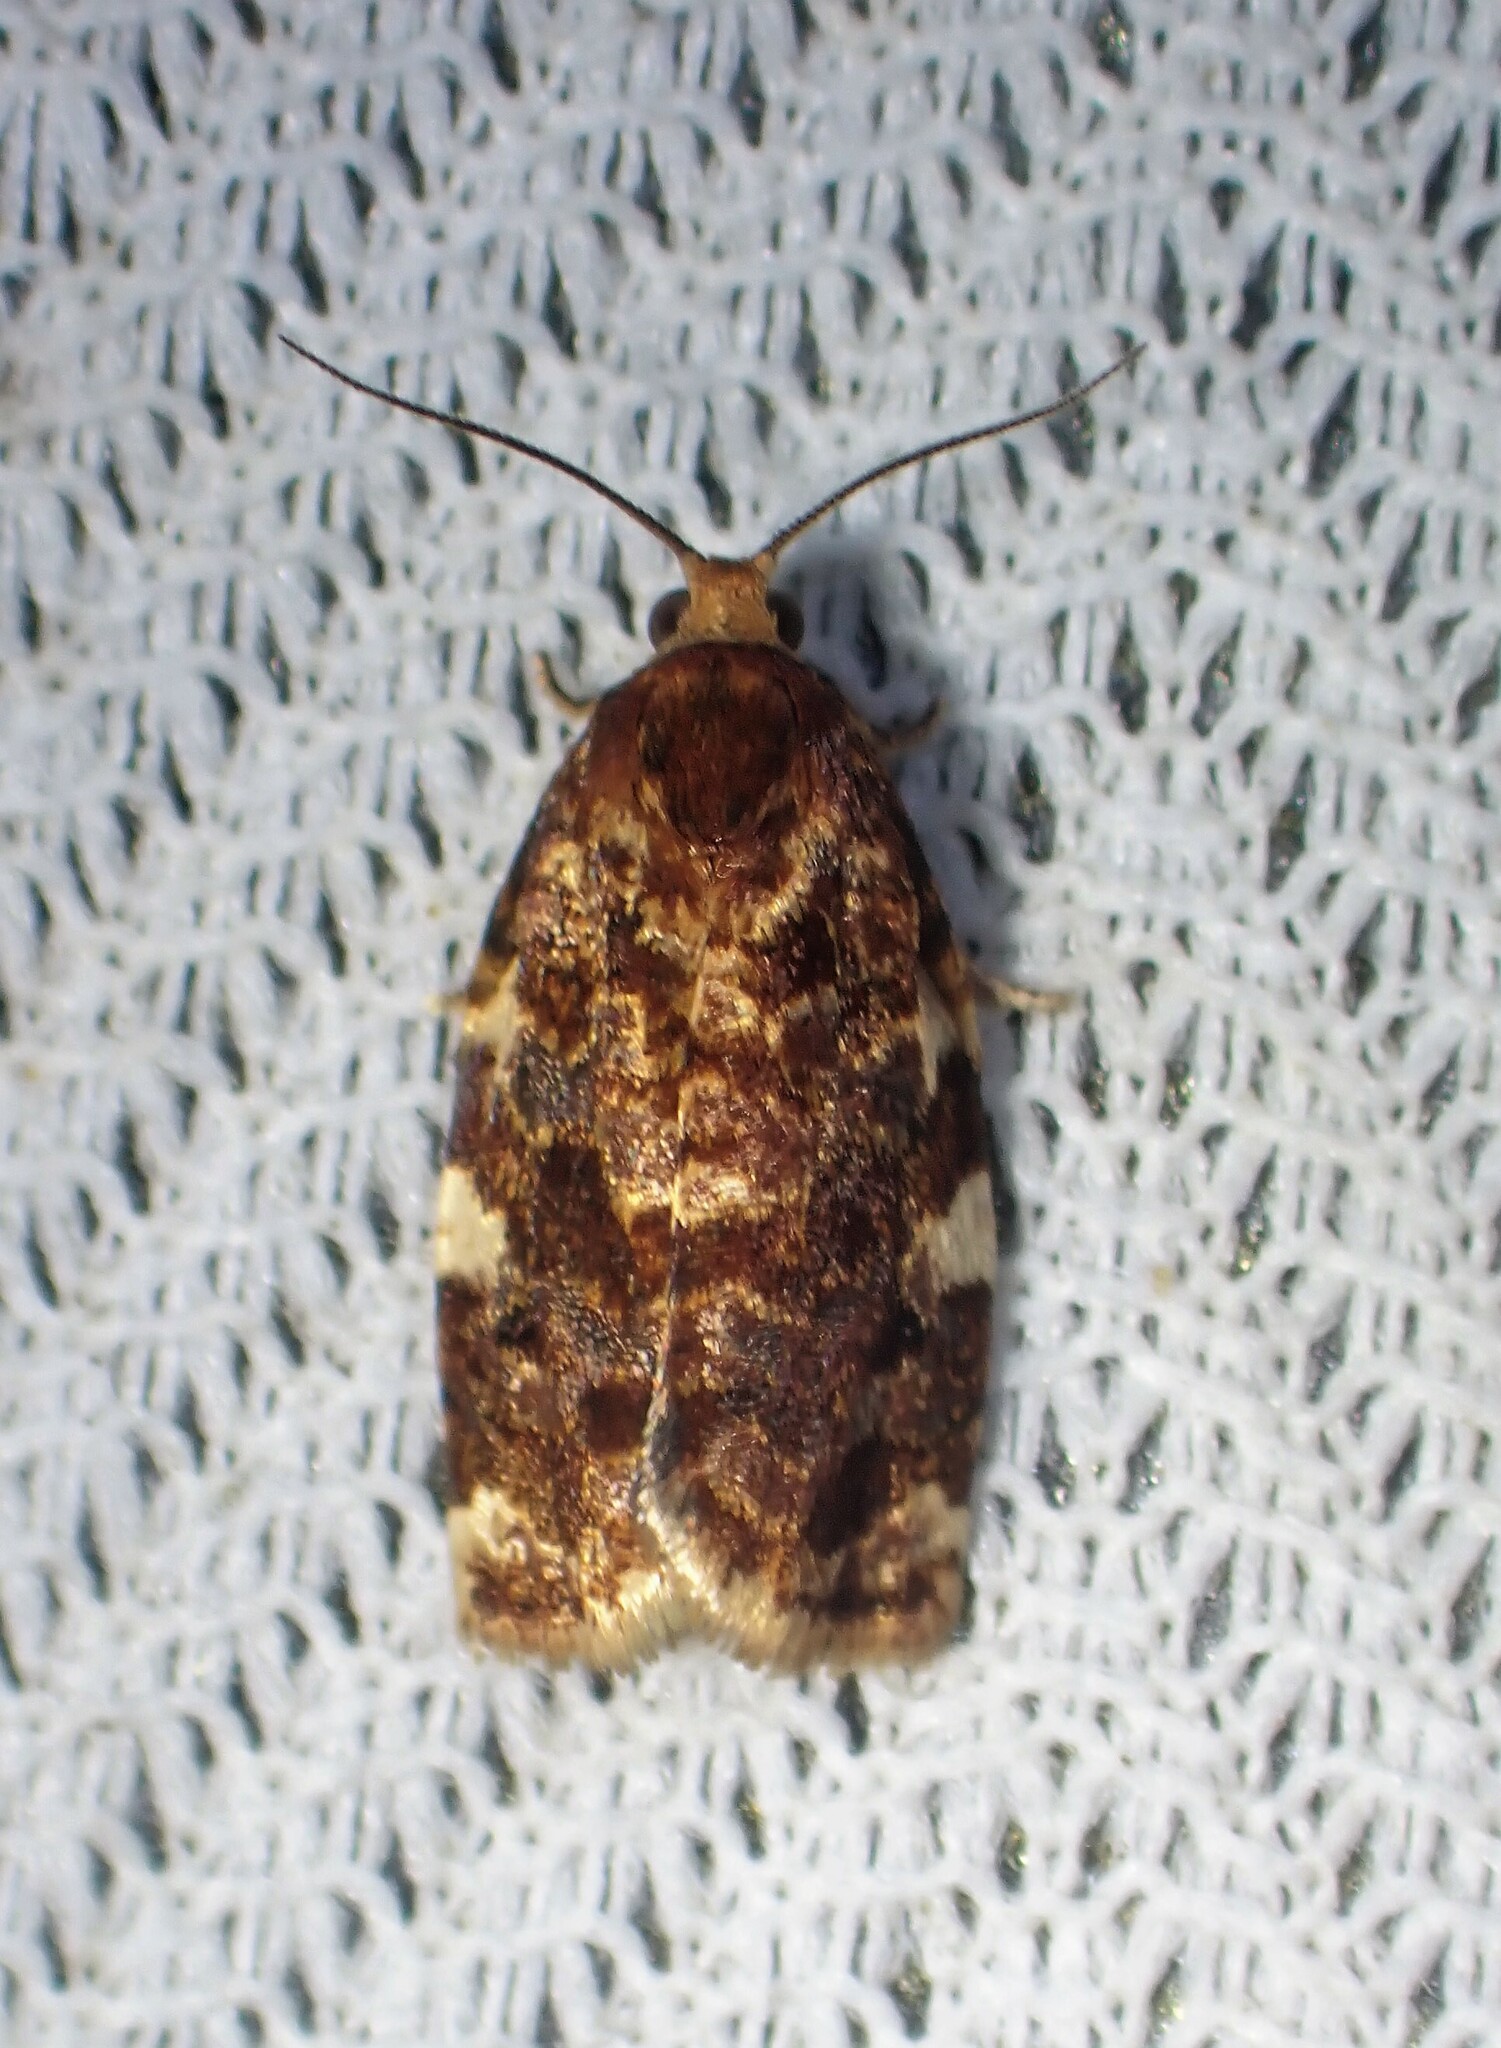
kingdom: Animalia
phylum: Arthropoda
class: Insecta
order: Lepidoptera
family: Tortricidae
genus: Archips
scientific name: Archips argyrospila
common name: Fruit-tree leafroller moth
